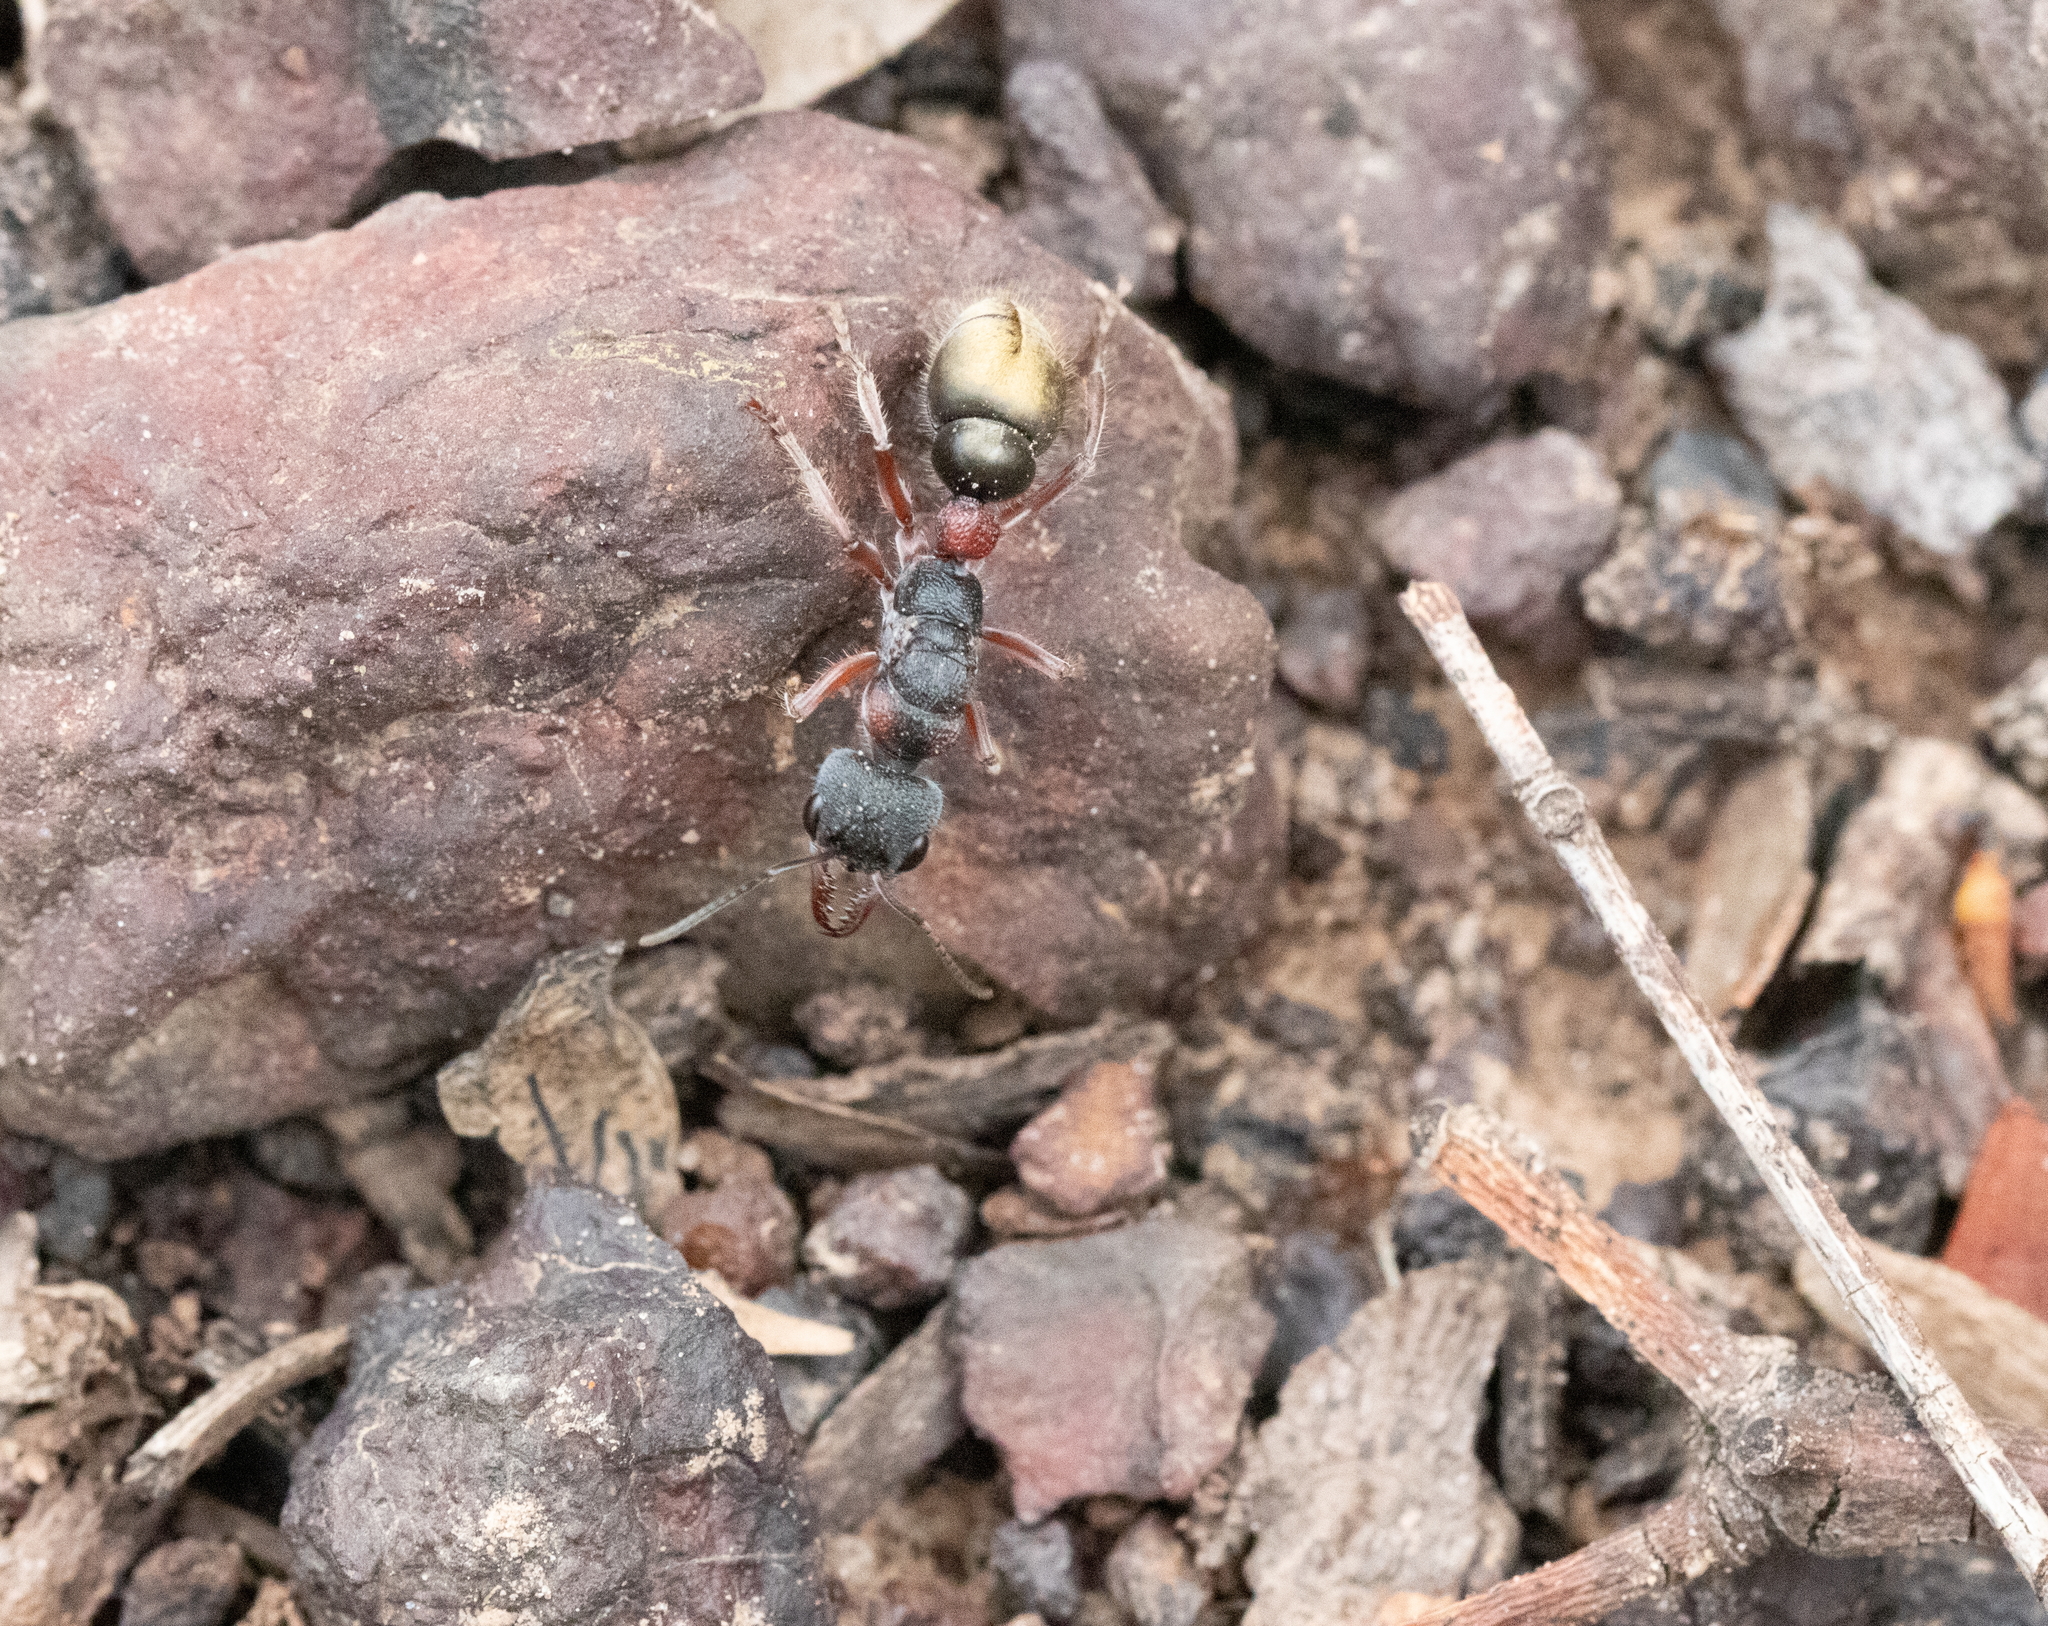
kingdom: Animalia
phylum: Arthropoda
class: Insecta
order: Hymenoptera
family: Formicidae
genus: Myrmecia
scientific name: Myrmecia chrysogaster
